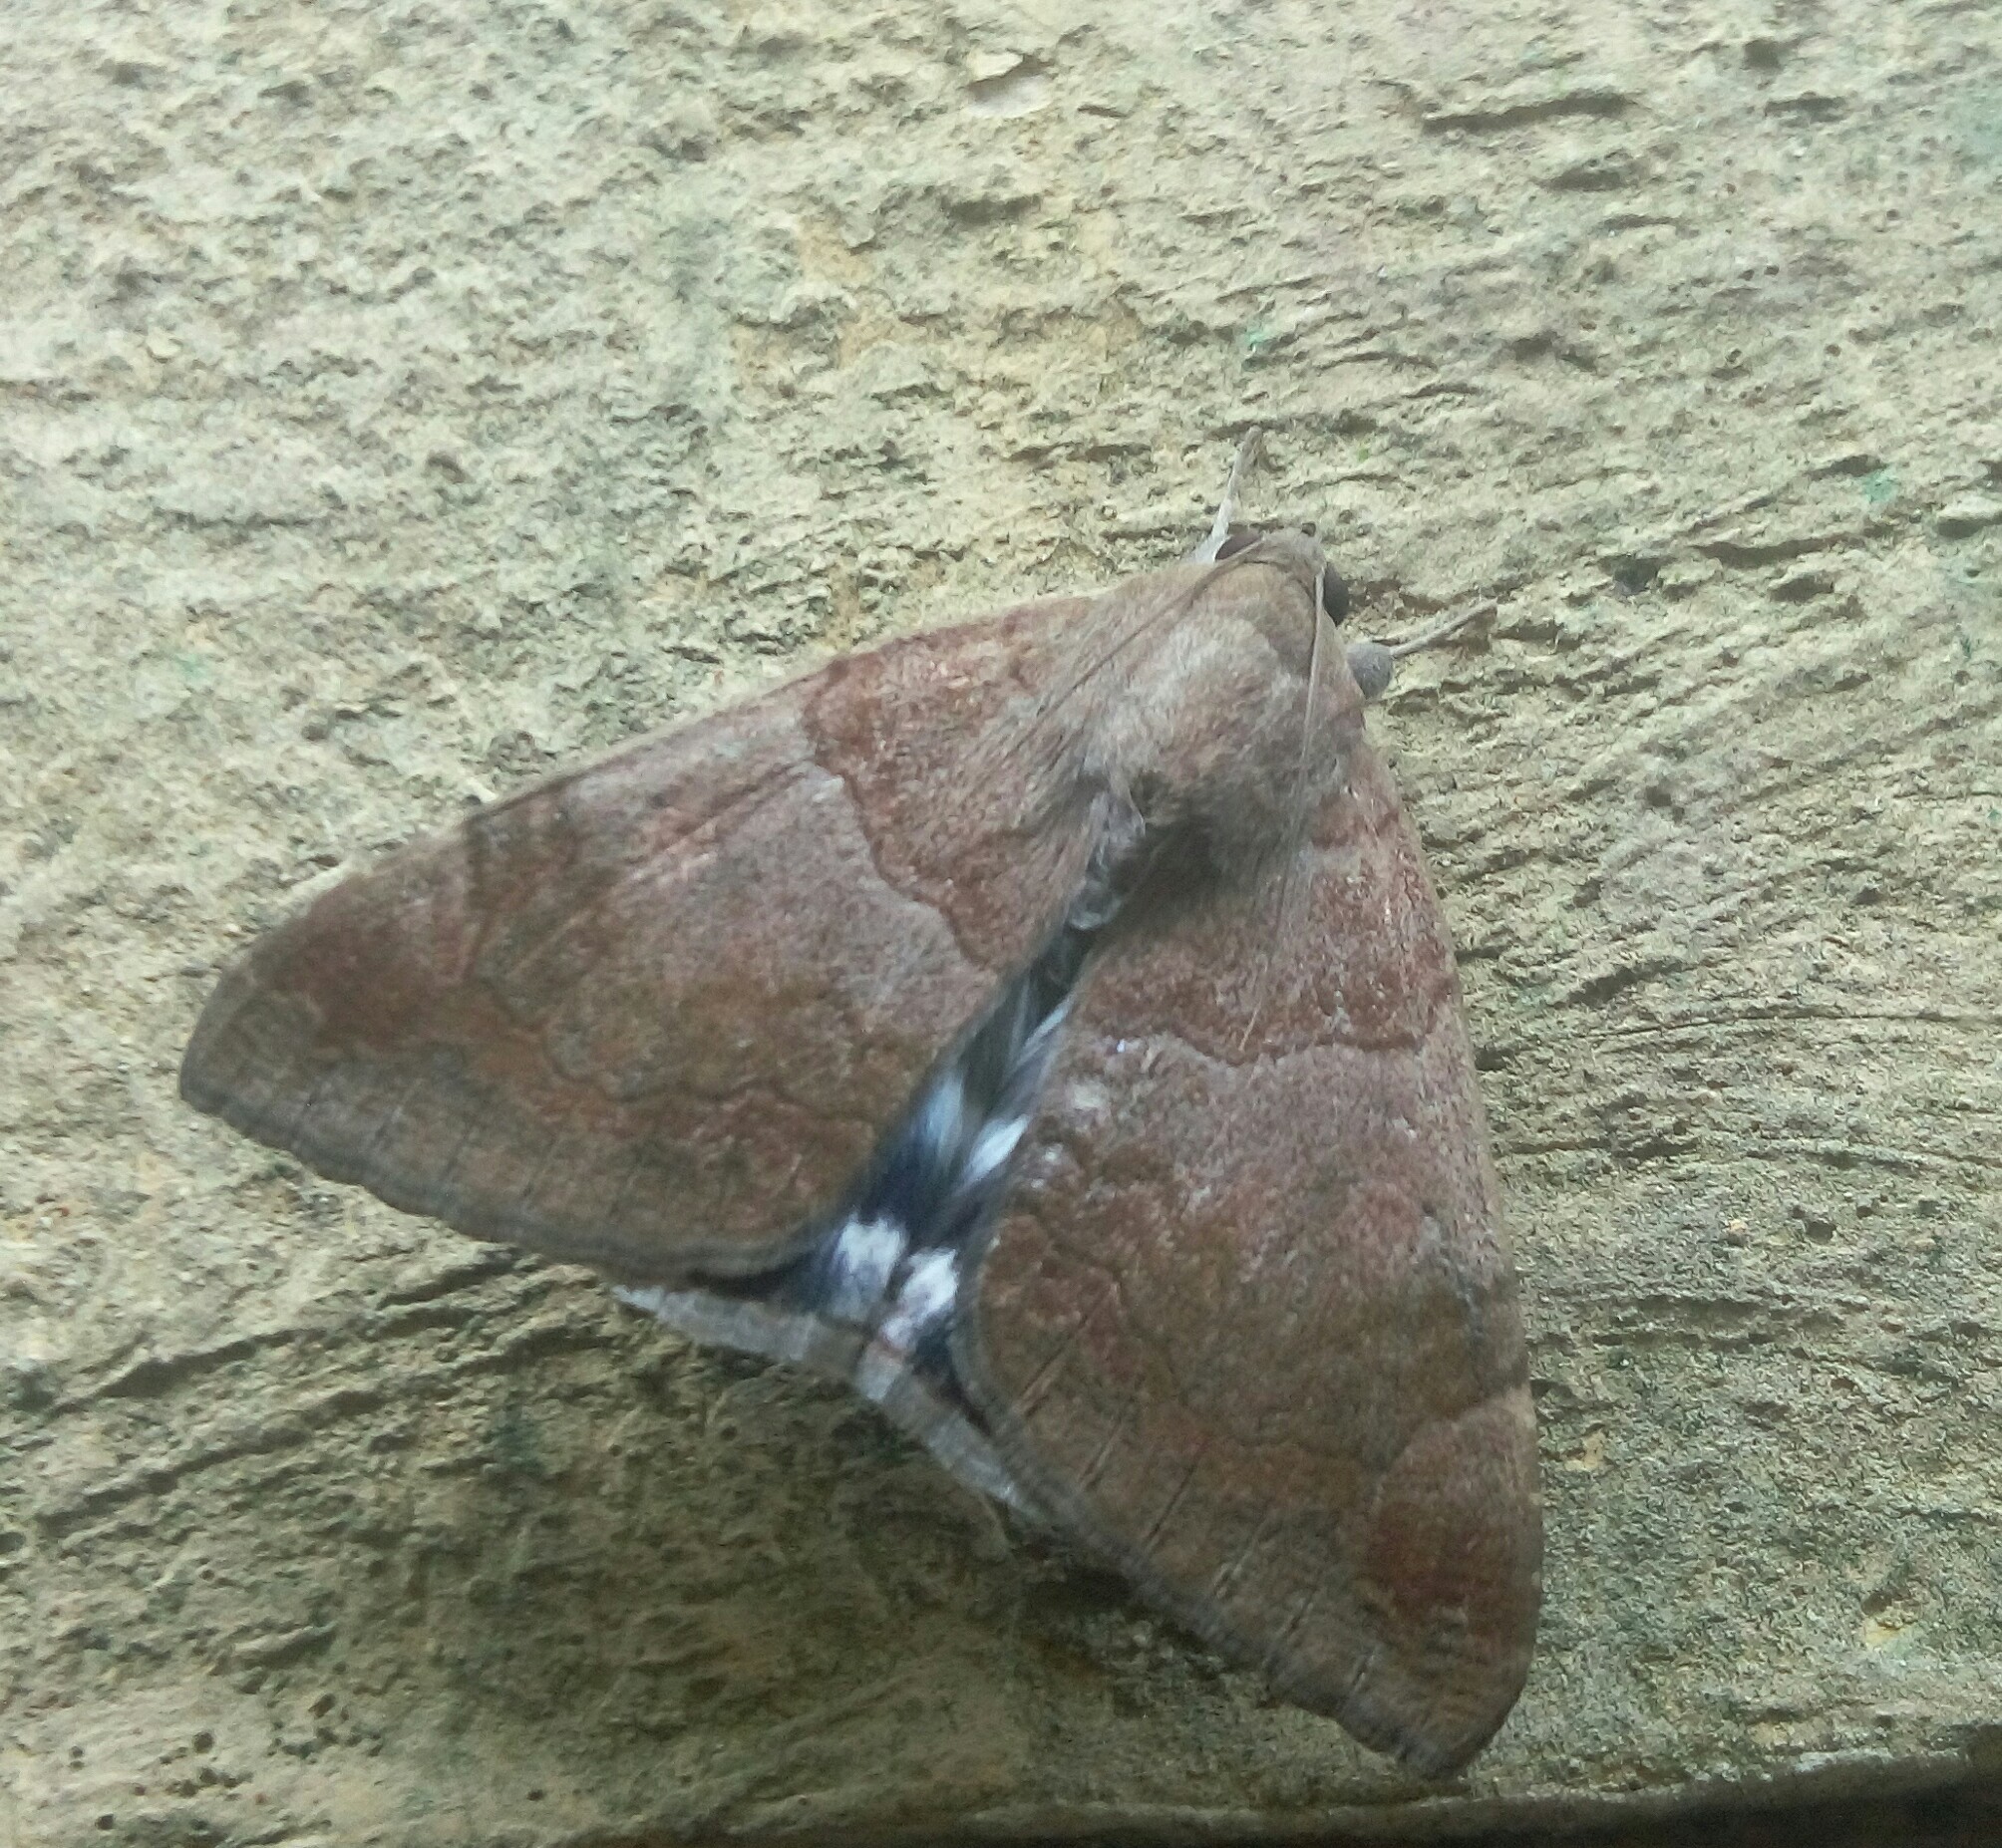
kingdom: Animalia
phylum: Arthropoda
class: Insecta
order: Lepidoptera
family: Erebidae
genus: Achaea
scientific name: Achaea janata
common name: Croton caterpillar
